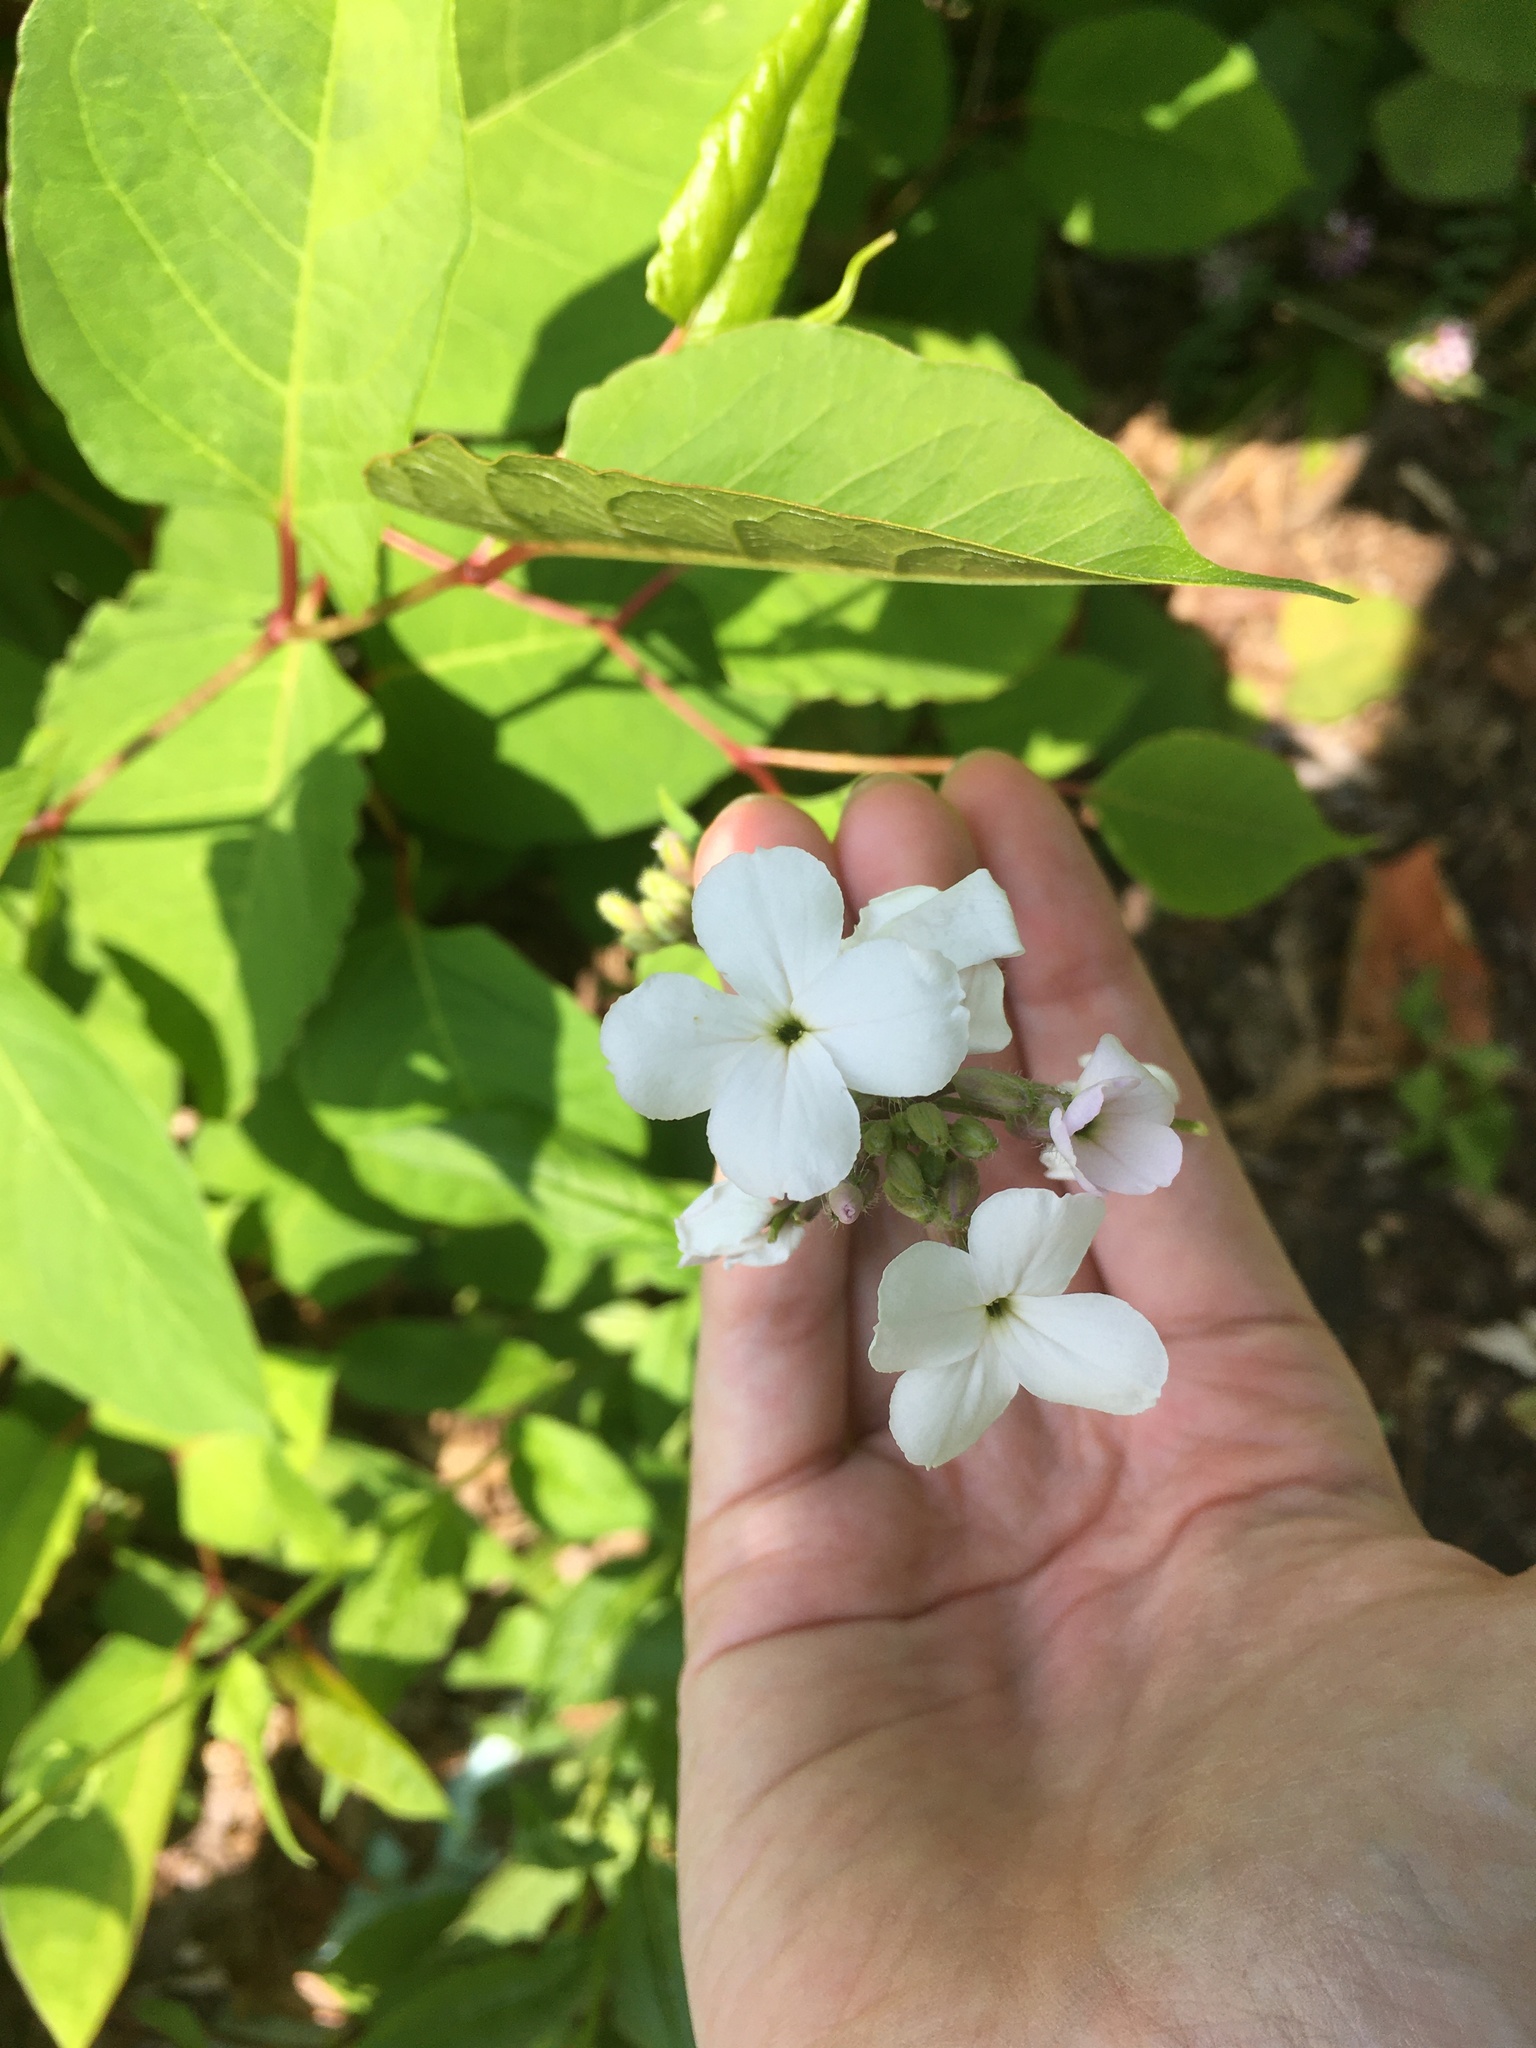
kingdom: Plantae
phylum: Tracheophyta
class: Magnoliopsida
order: Brassicales
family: Brassicaceae
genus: Hesperis
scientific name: Hesperis matronalis
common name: Dame's-violet
